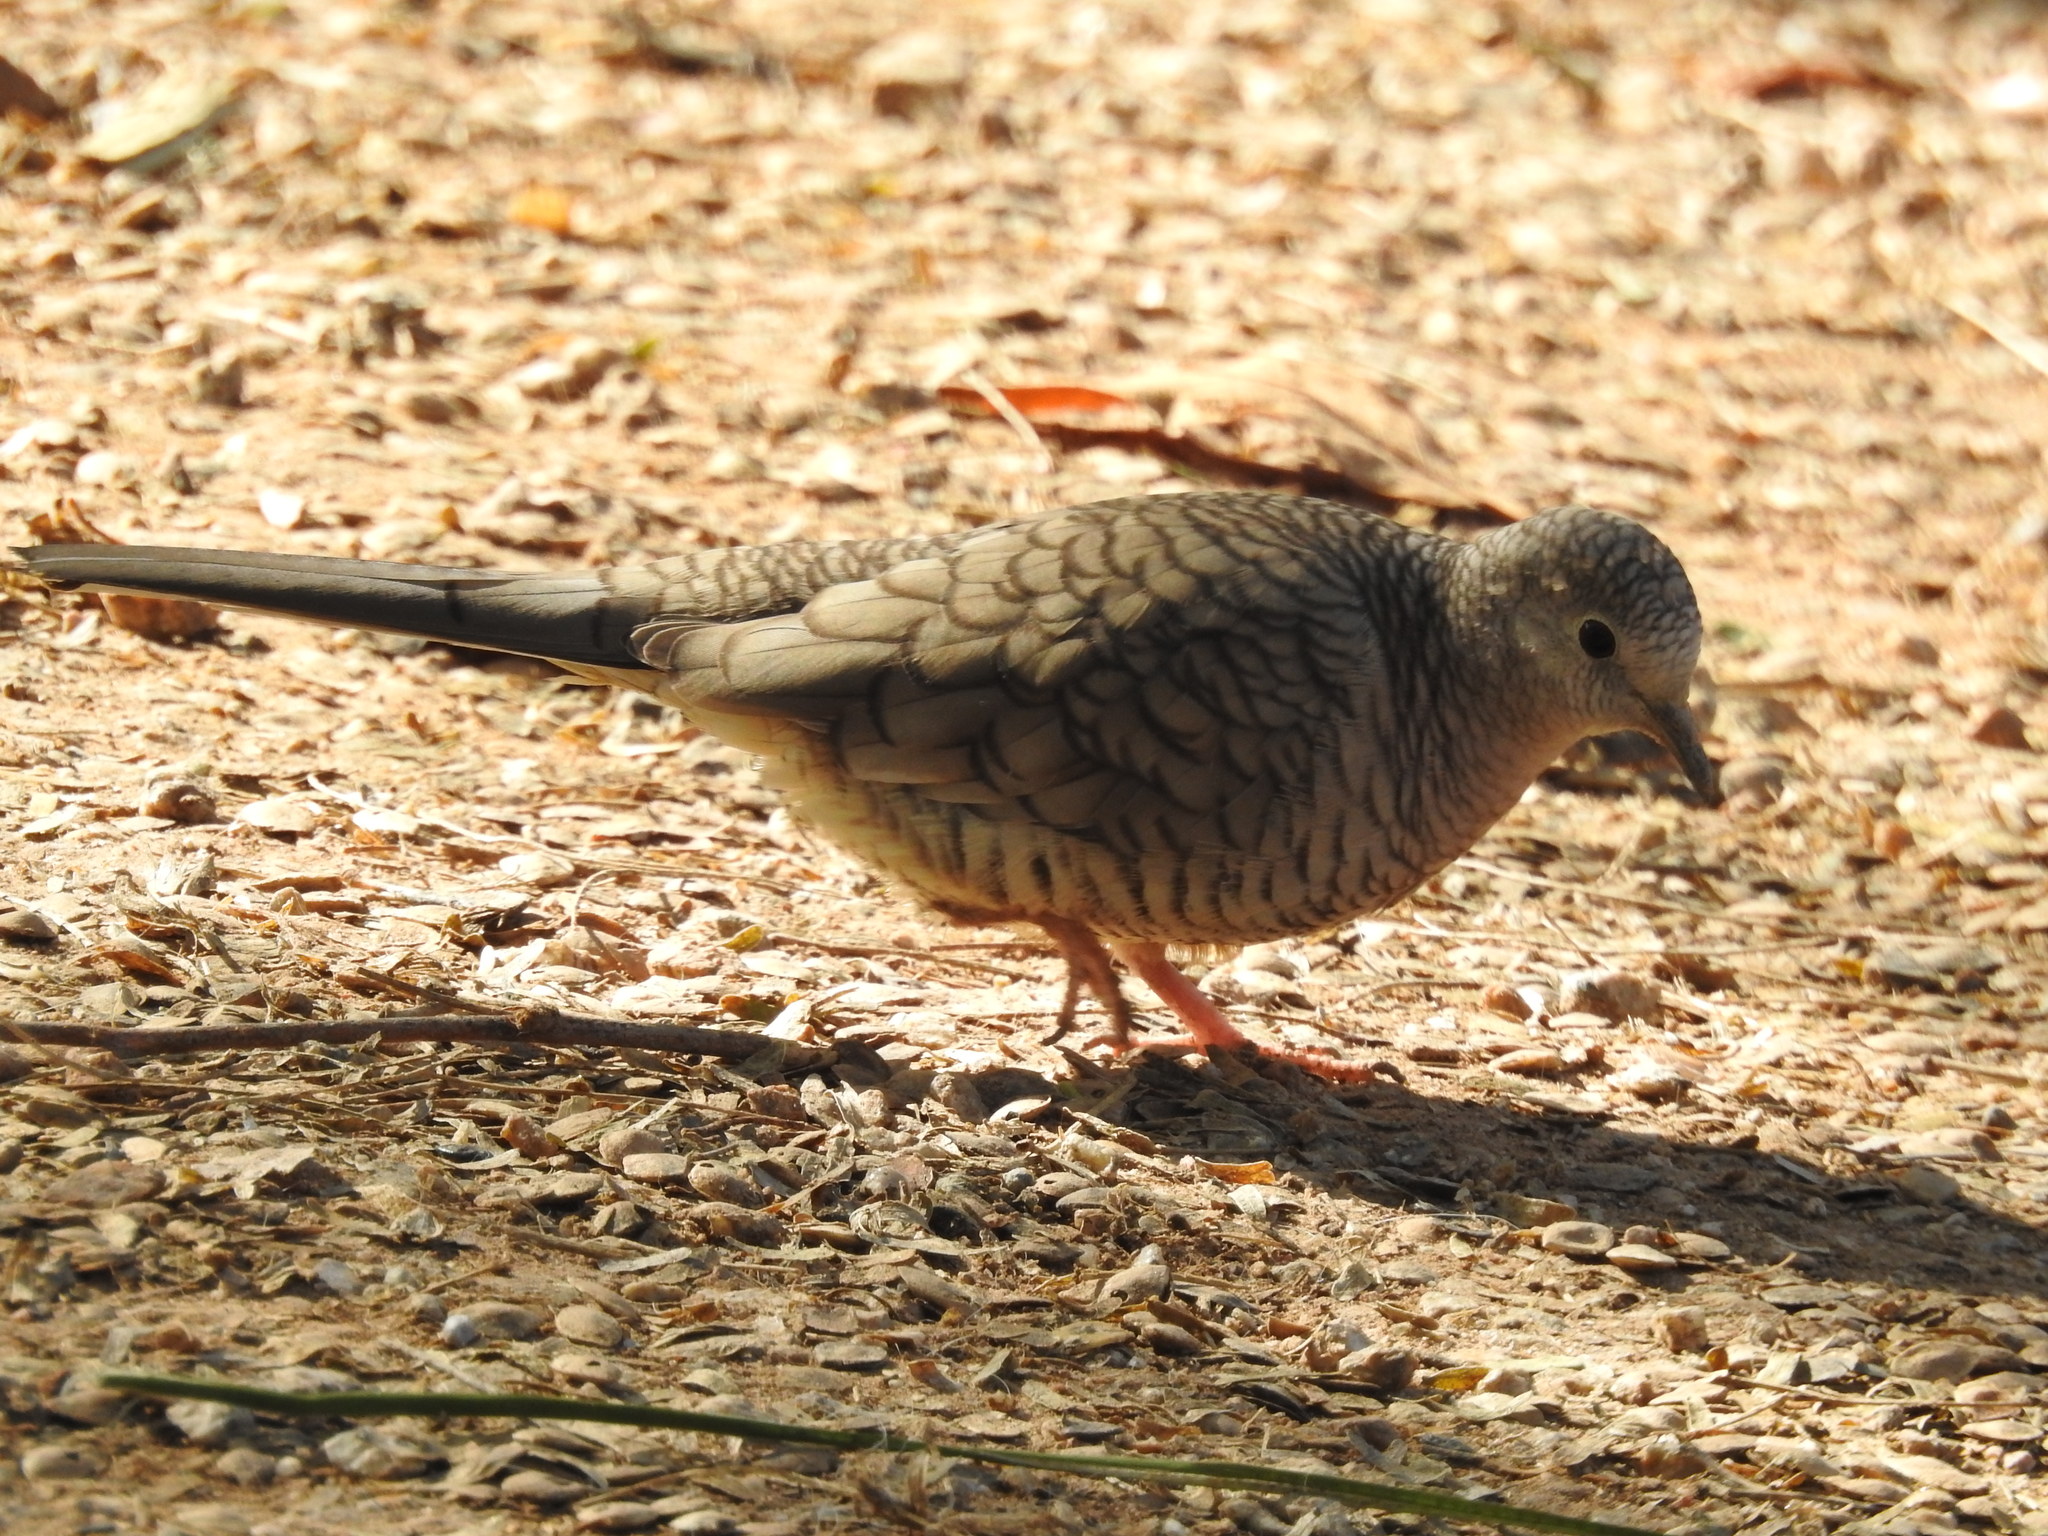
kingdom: Animalia
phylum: Chordata
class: Aves
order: Columbiformes
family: Columbidae
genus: Columbina
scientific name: Columbina inca
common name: Inca dove
